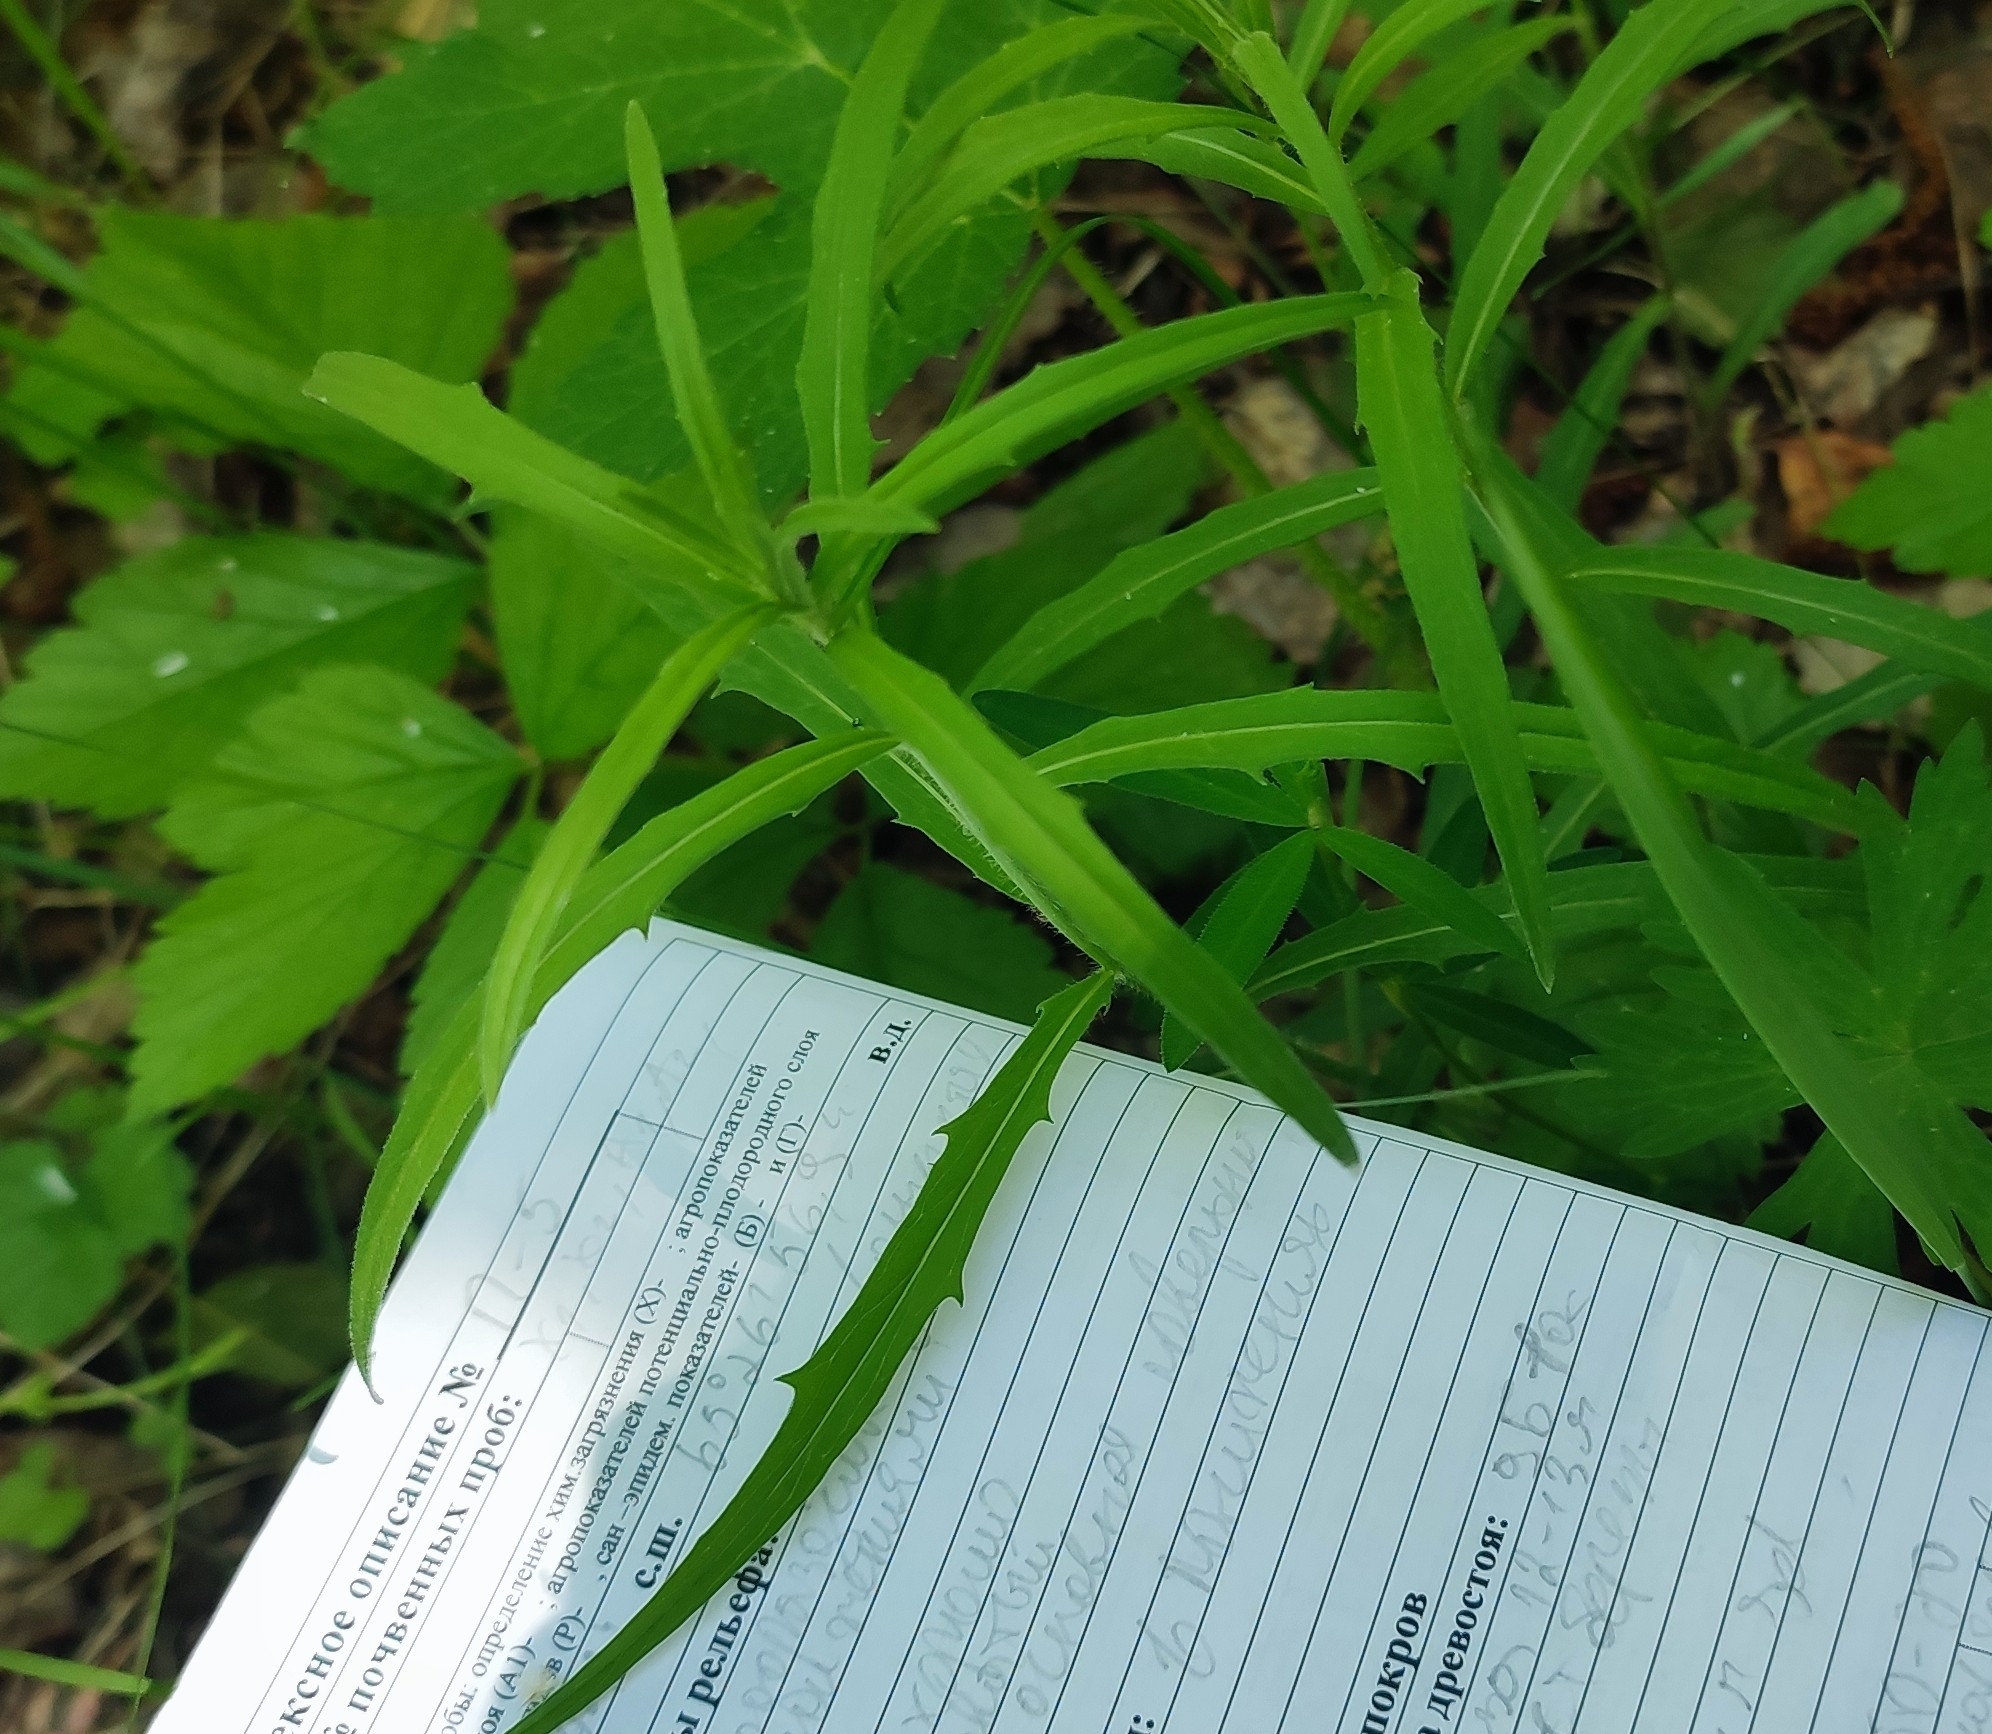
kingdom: Plantae
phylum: Tracheophyta
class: Magnoliopsida
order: Asterales
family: Asteraceae
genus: Hieracium
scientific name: Hieracium umbellatum
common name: Northern hawkweed
